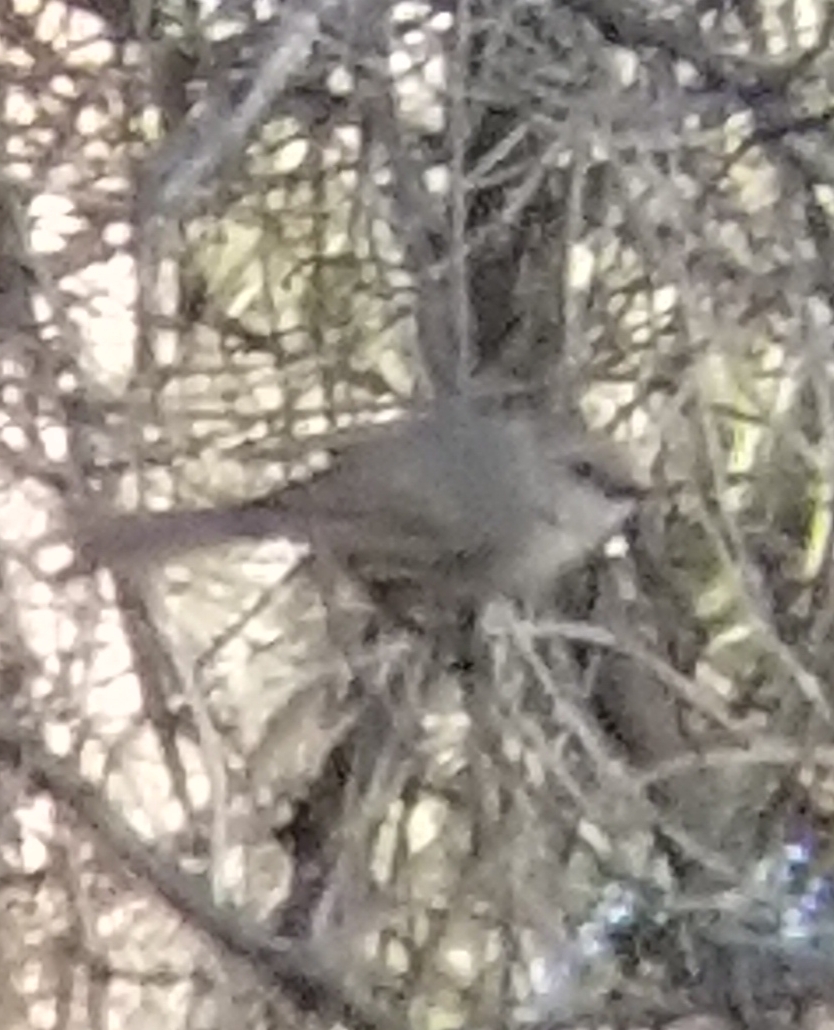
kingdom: Animalia
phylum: Chordata
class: Aves
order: Passeriformes
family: Aegithalidae
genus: Psaltriparus
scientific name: Psaltriparus minimus
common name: American bushtit
